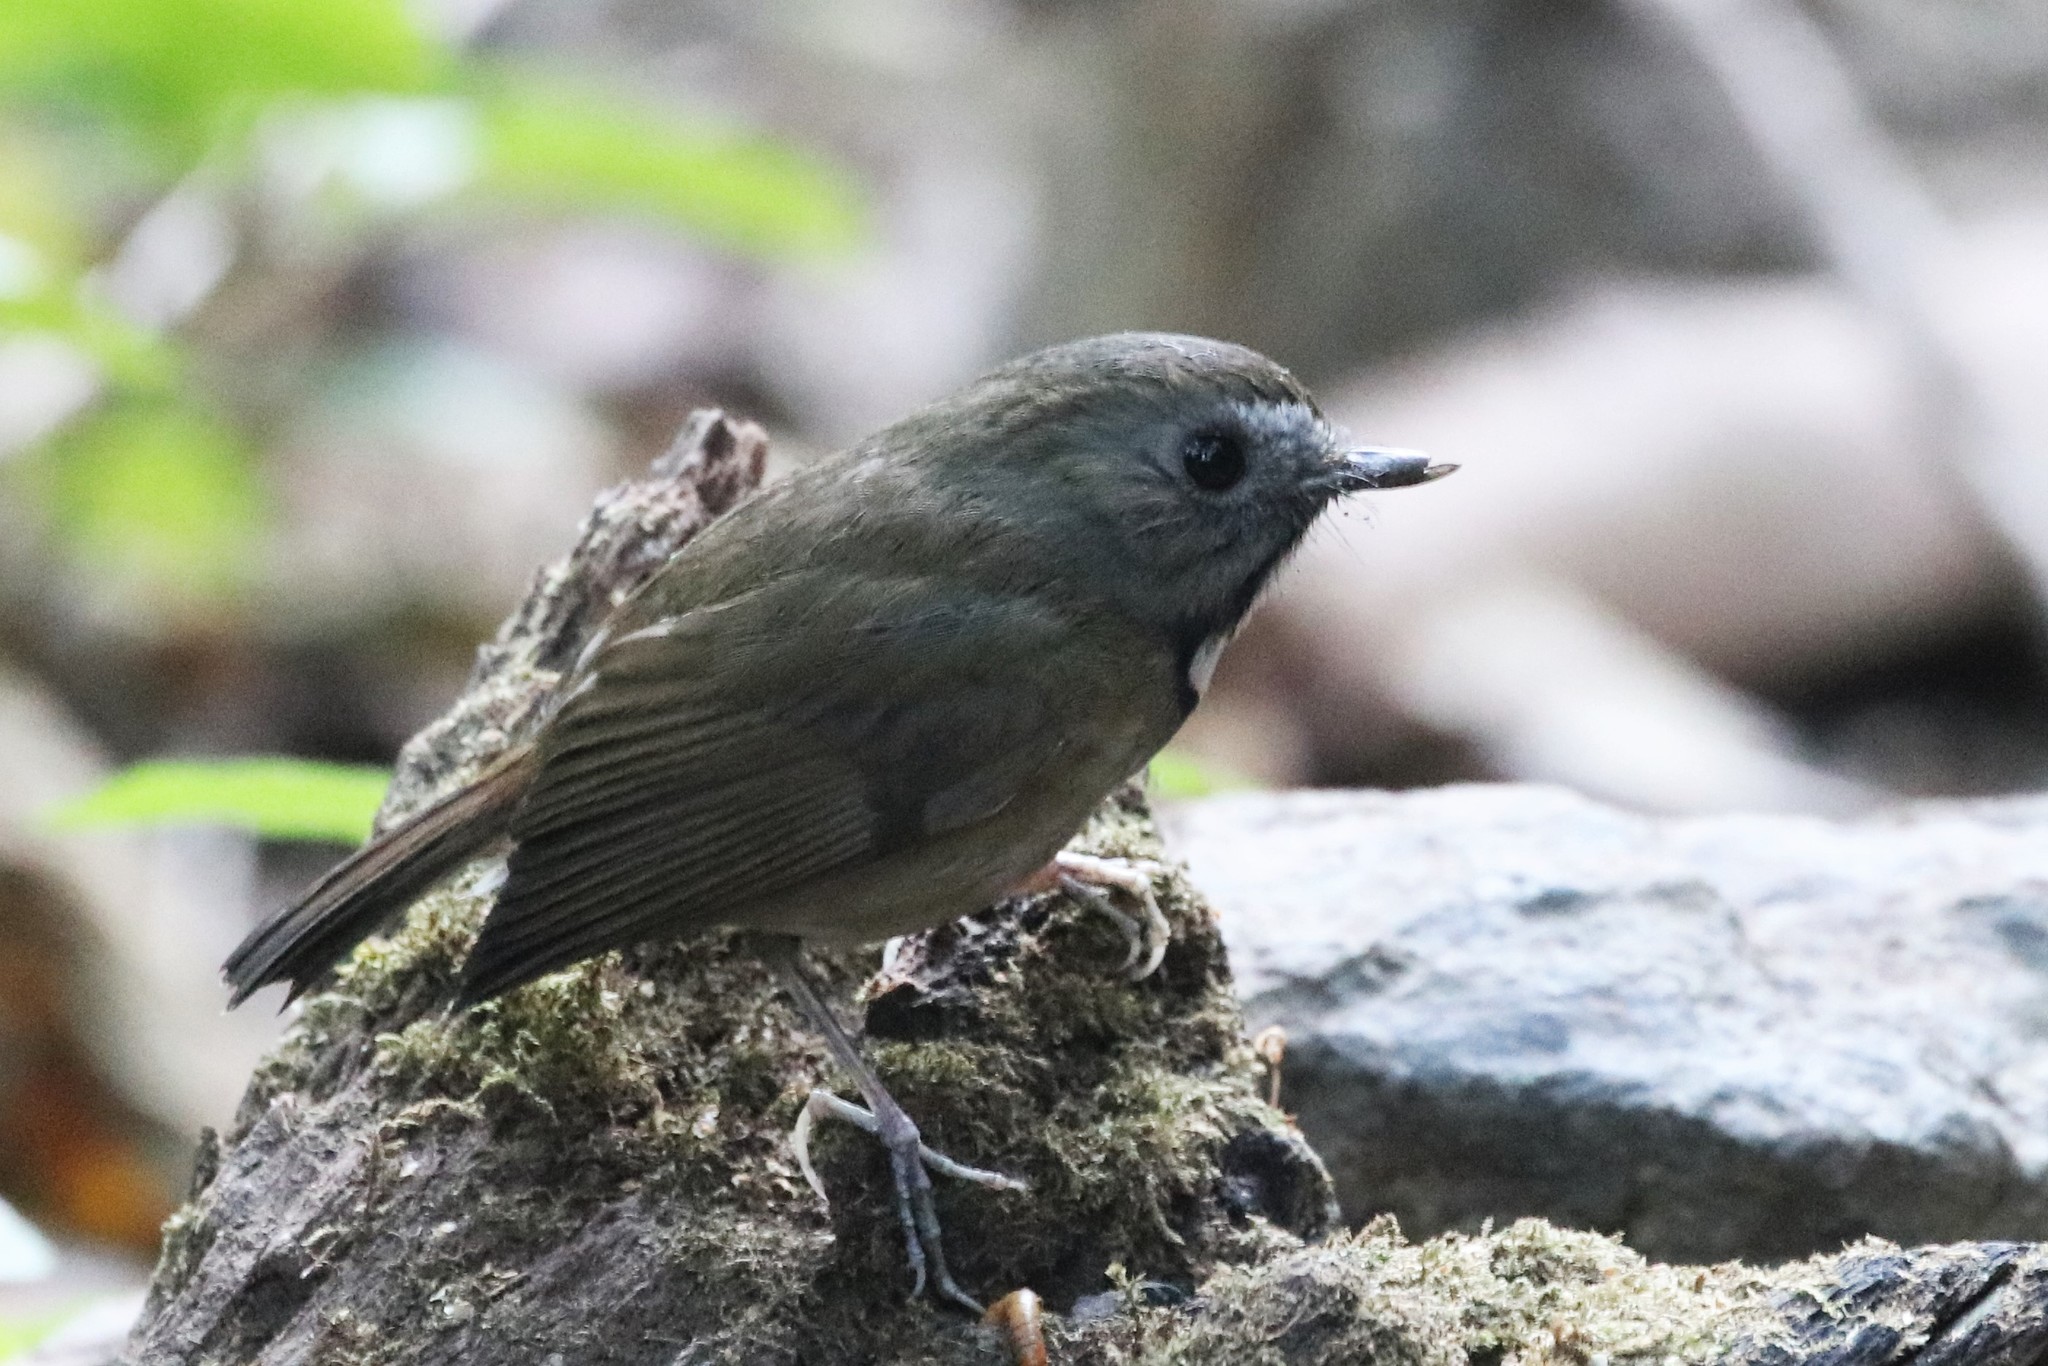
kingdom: Animalia
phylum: Chordata
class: Aves
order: Passeriformes
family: Muscicapidae
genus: Anthipes
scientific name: Anthipes monileger
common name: White-gorgeted flycatcher
